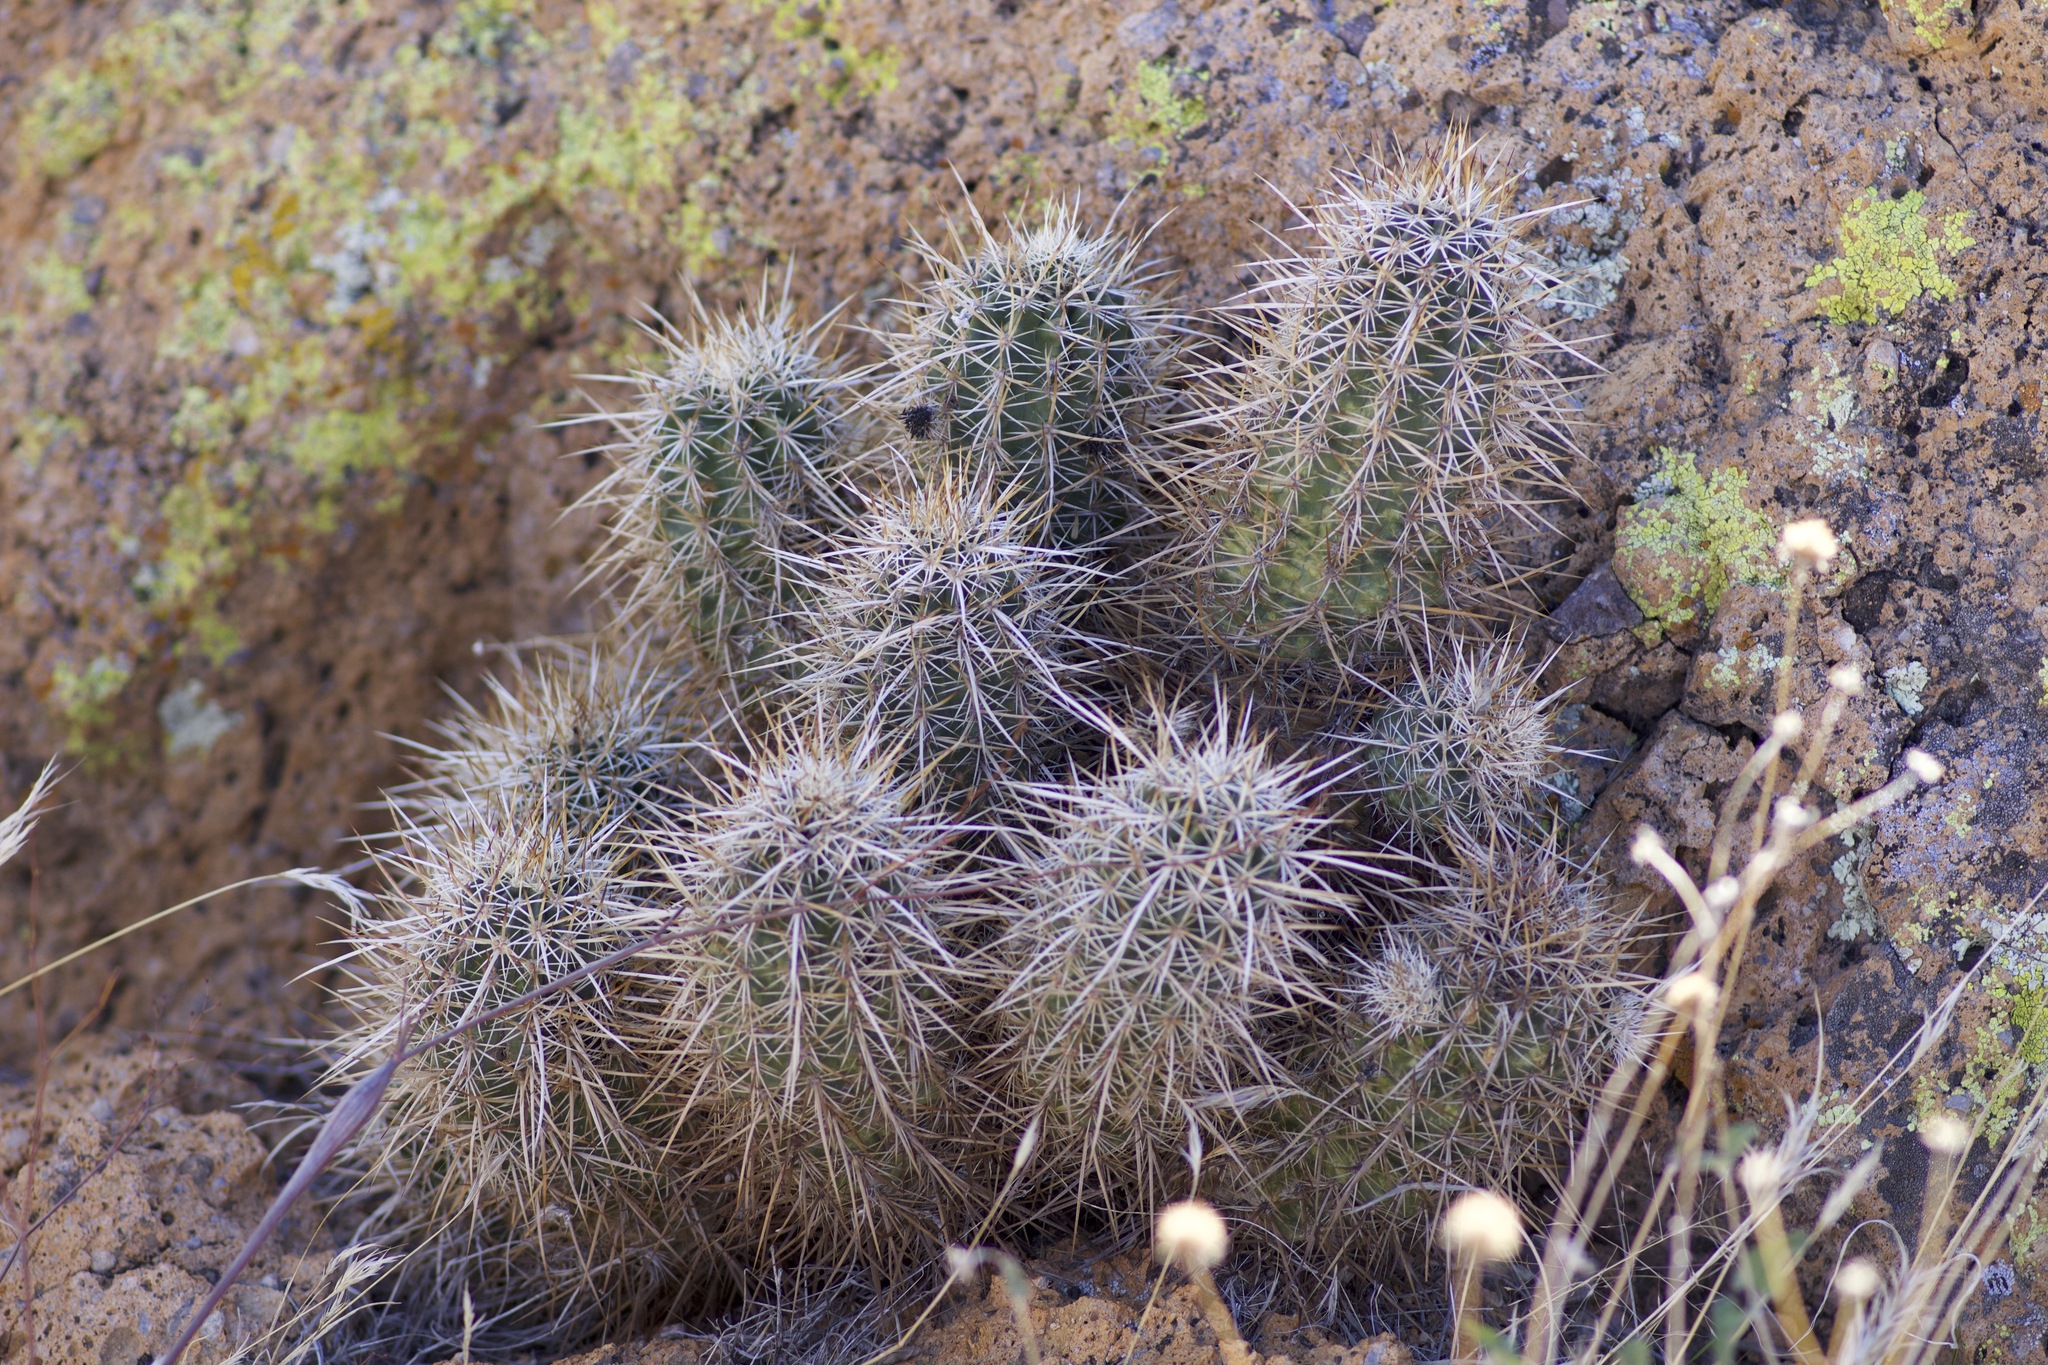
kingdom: Plantae
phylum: Tracheophyta
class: Magnoliopsida
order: Caryophyllales
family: Cactaceae
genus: Echinocereus
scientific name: Echinocereus engelmannii
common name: Engelmann's hedgehog cactus
